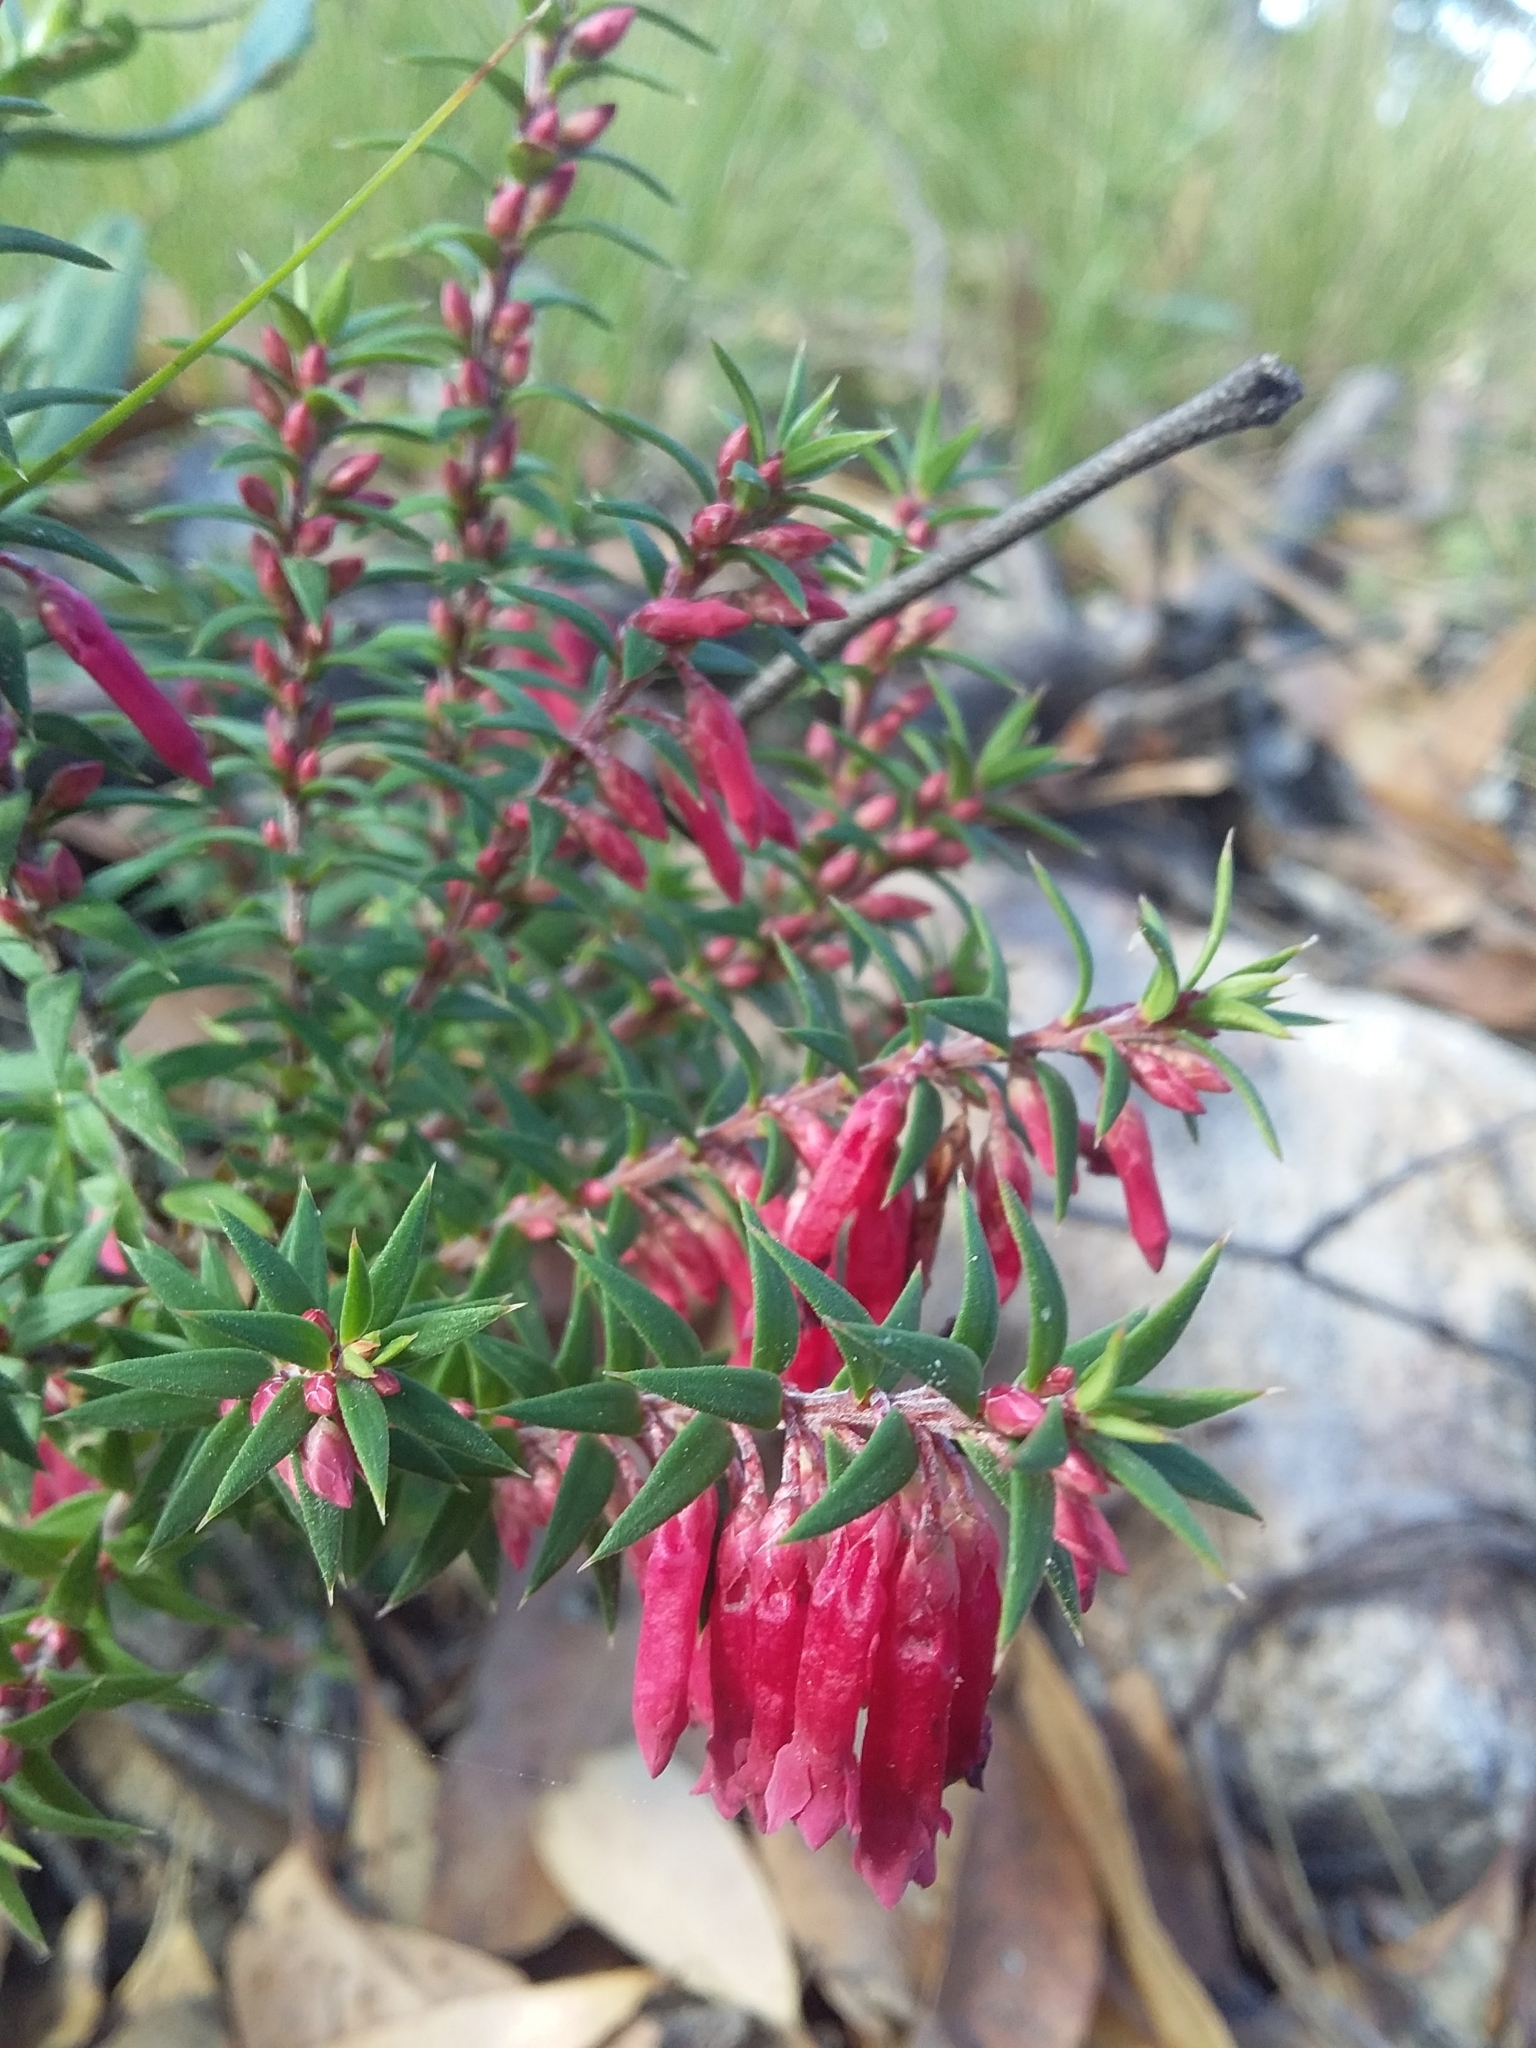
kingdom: Plantae
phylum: Tracheophyta
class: Magnoliopsida
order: Ericales
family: Ericaceae
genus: Epacris
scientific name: Epacris impressa
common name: Common-heath
